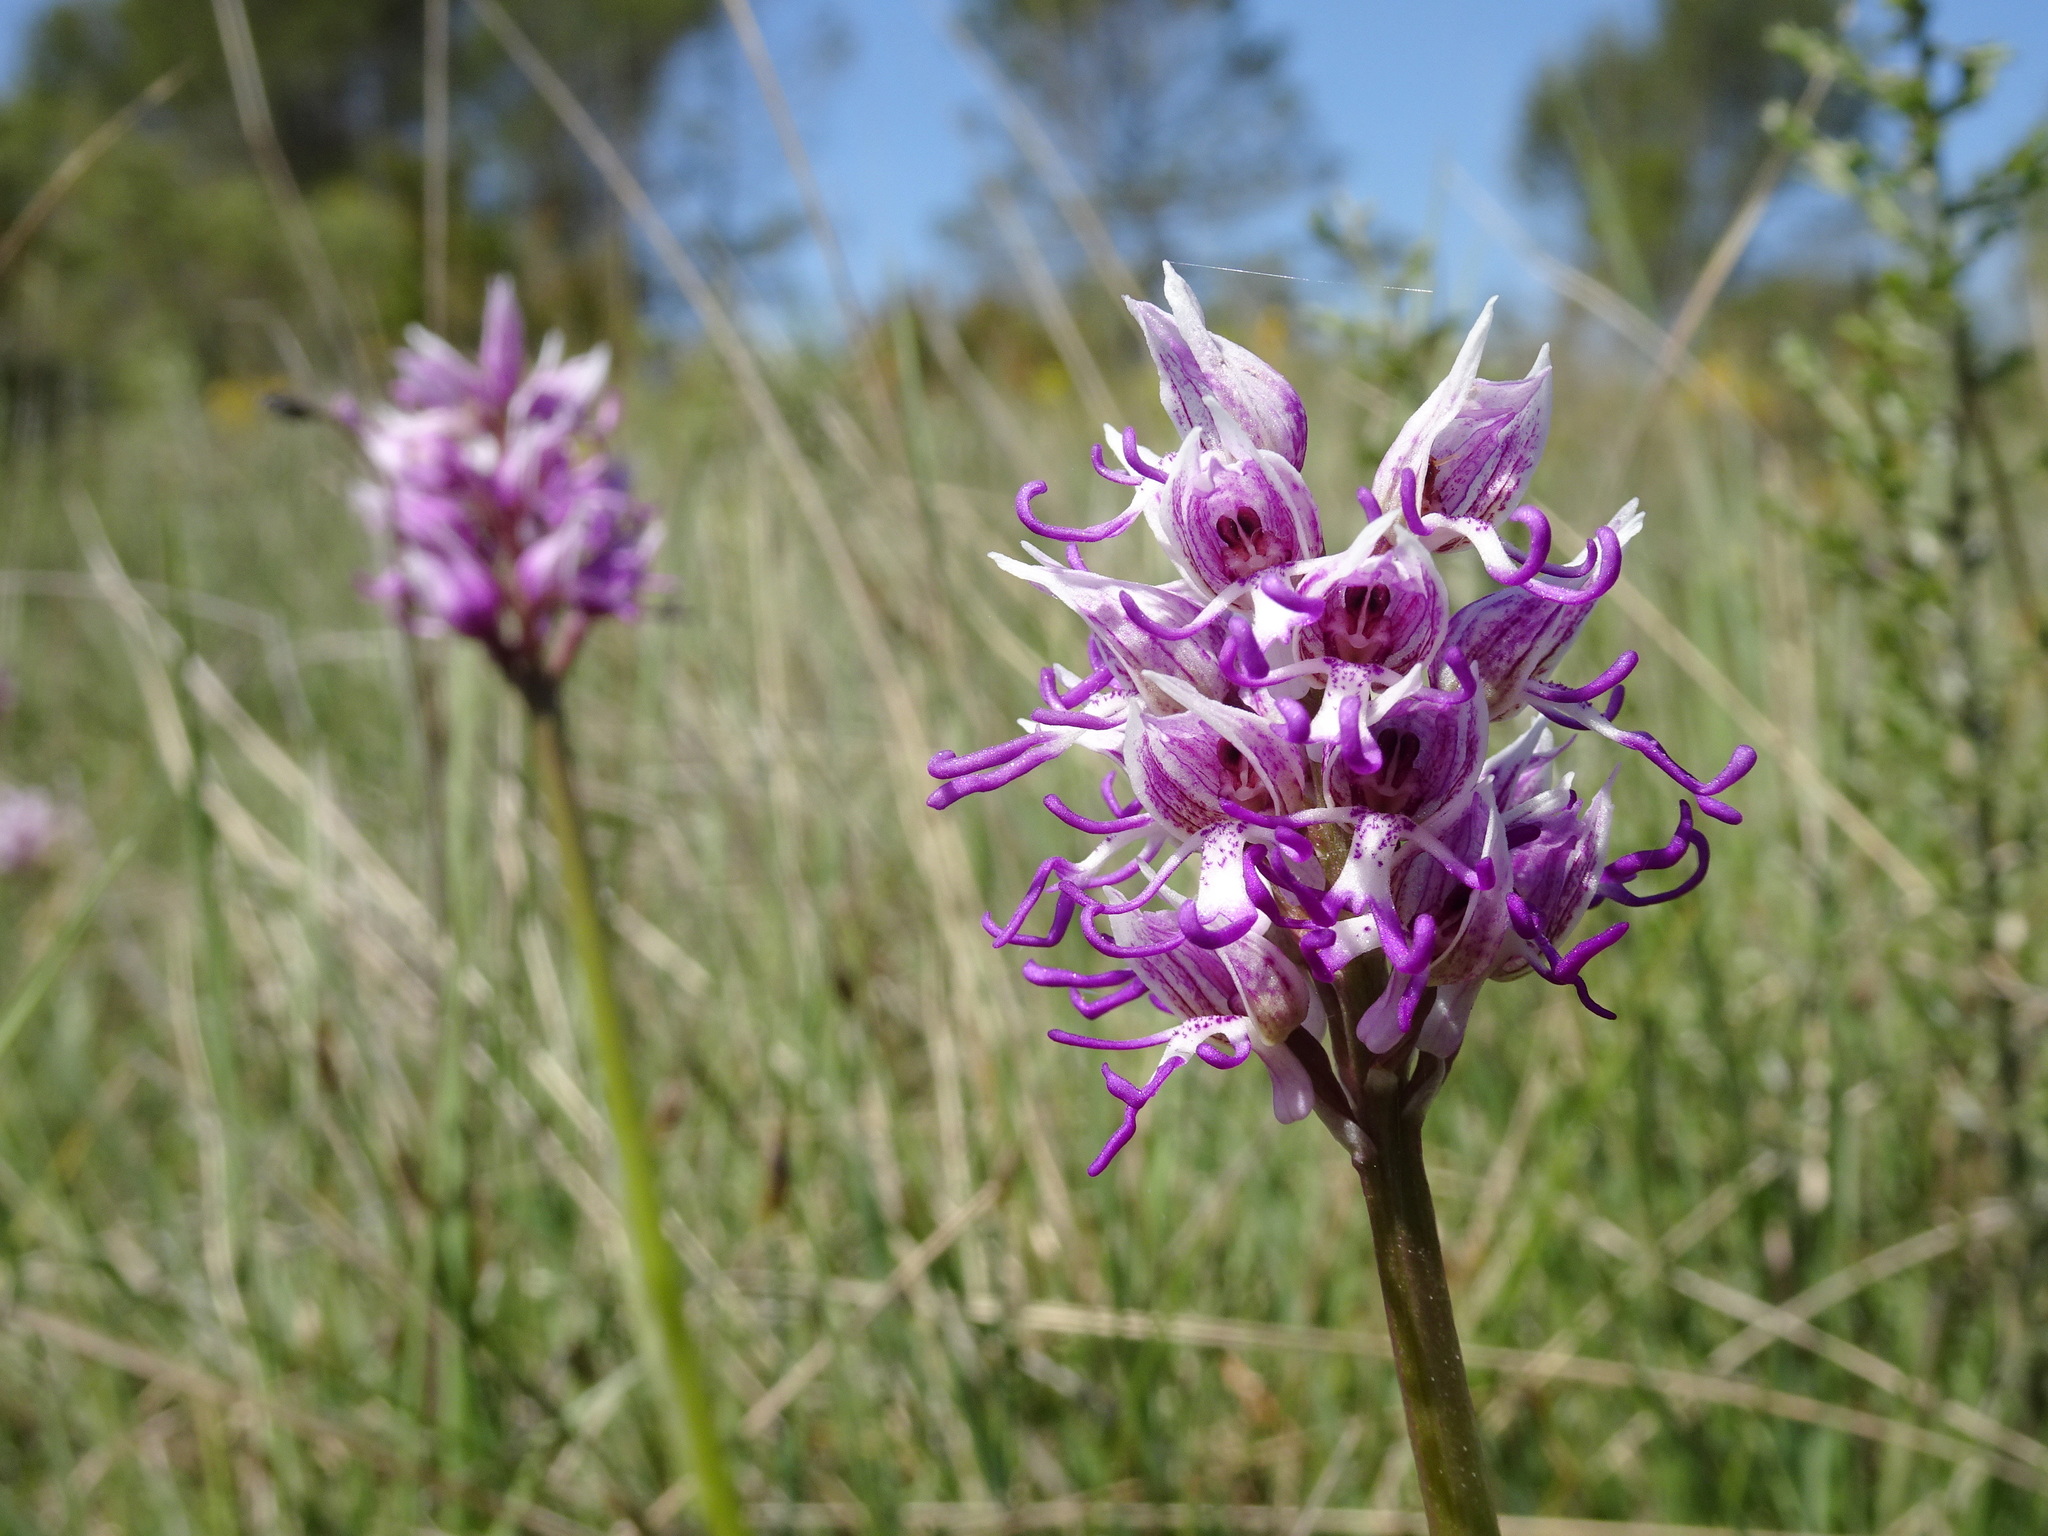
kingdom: Plantae
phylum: Tracheophyta
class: Liliopsida
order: Asparagales
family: Orchidaceae
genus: Orchis
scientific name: Orchis simia
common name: Monkey orchid
